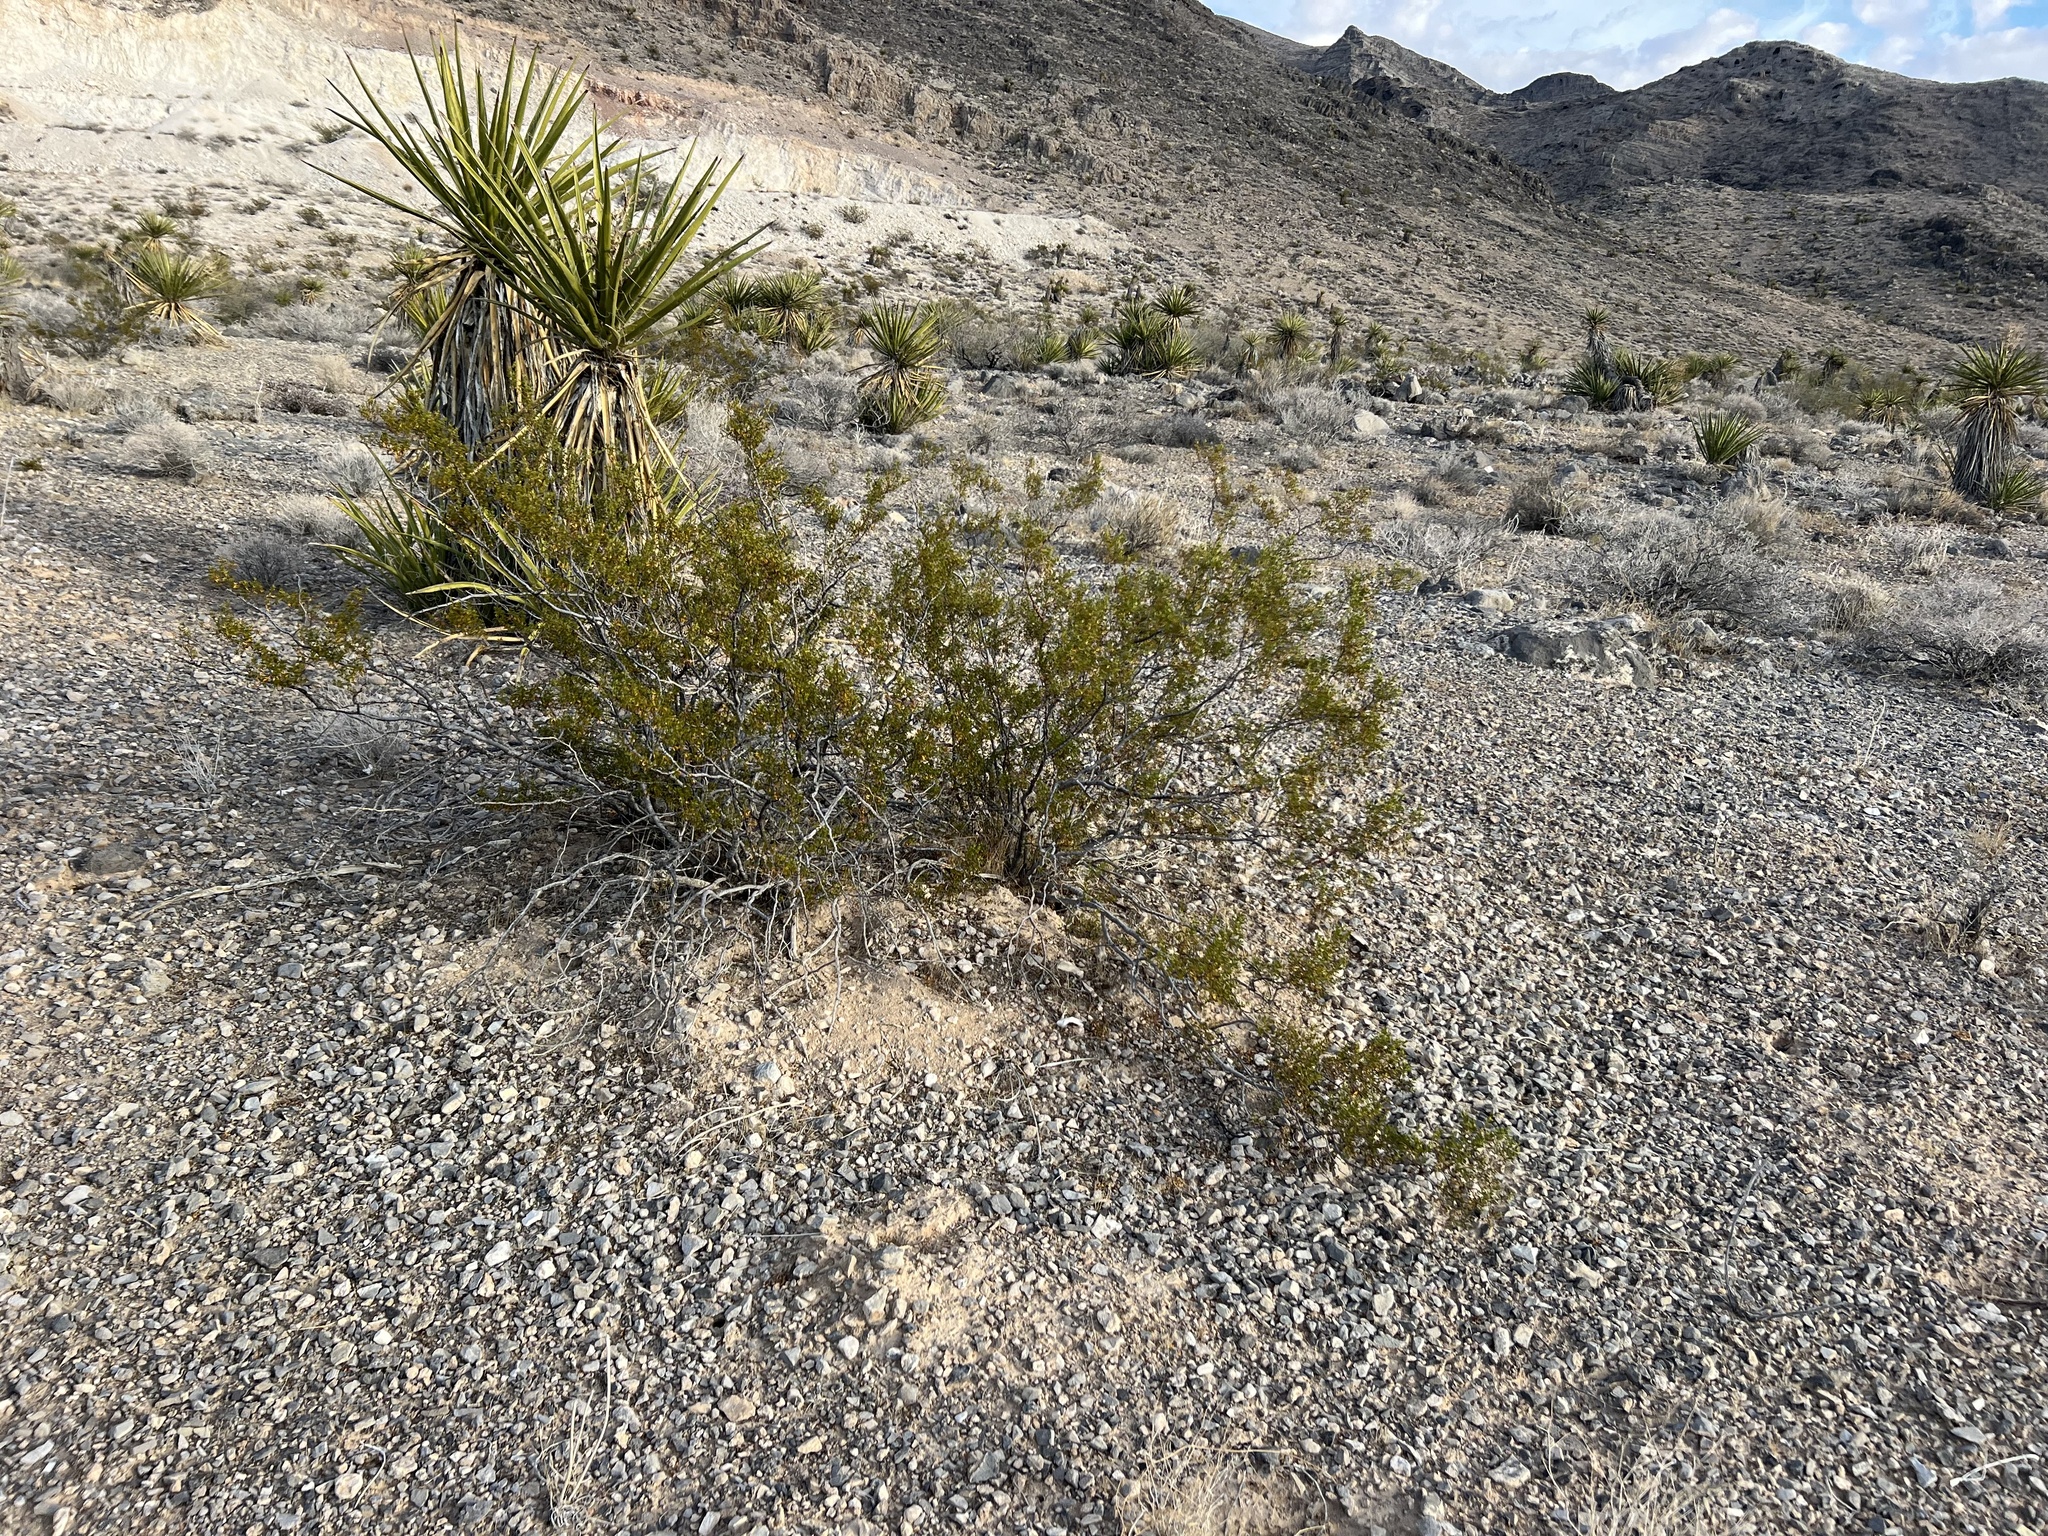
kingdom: Plantae
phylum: Tracheophyta
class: Magnoliopsida
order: Zygophyllales
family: Zygophyllaceae
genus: Larrea
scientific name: Larrea tridentata
